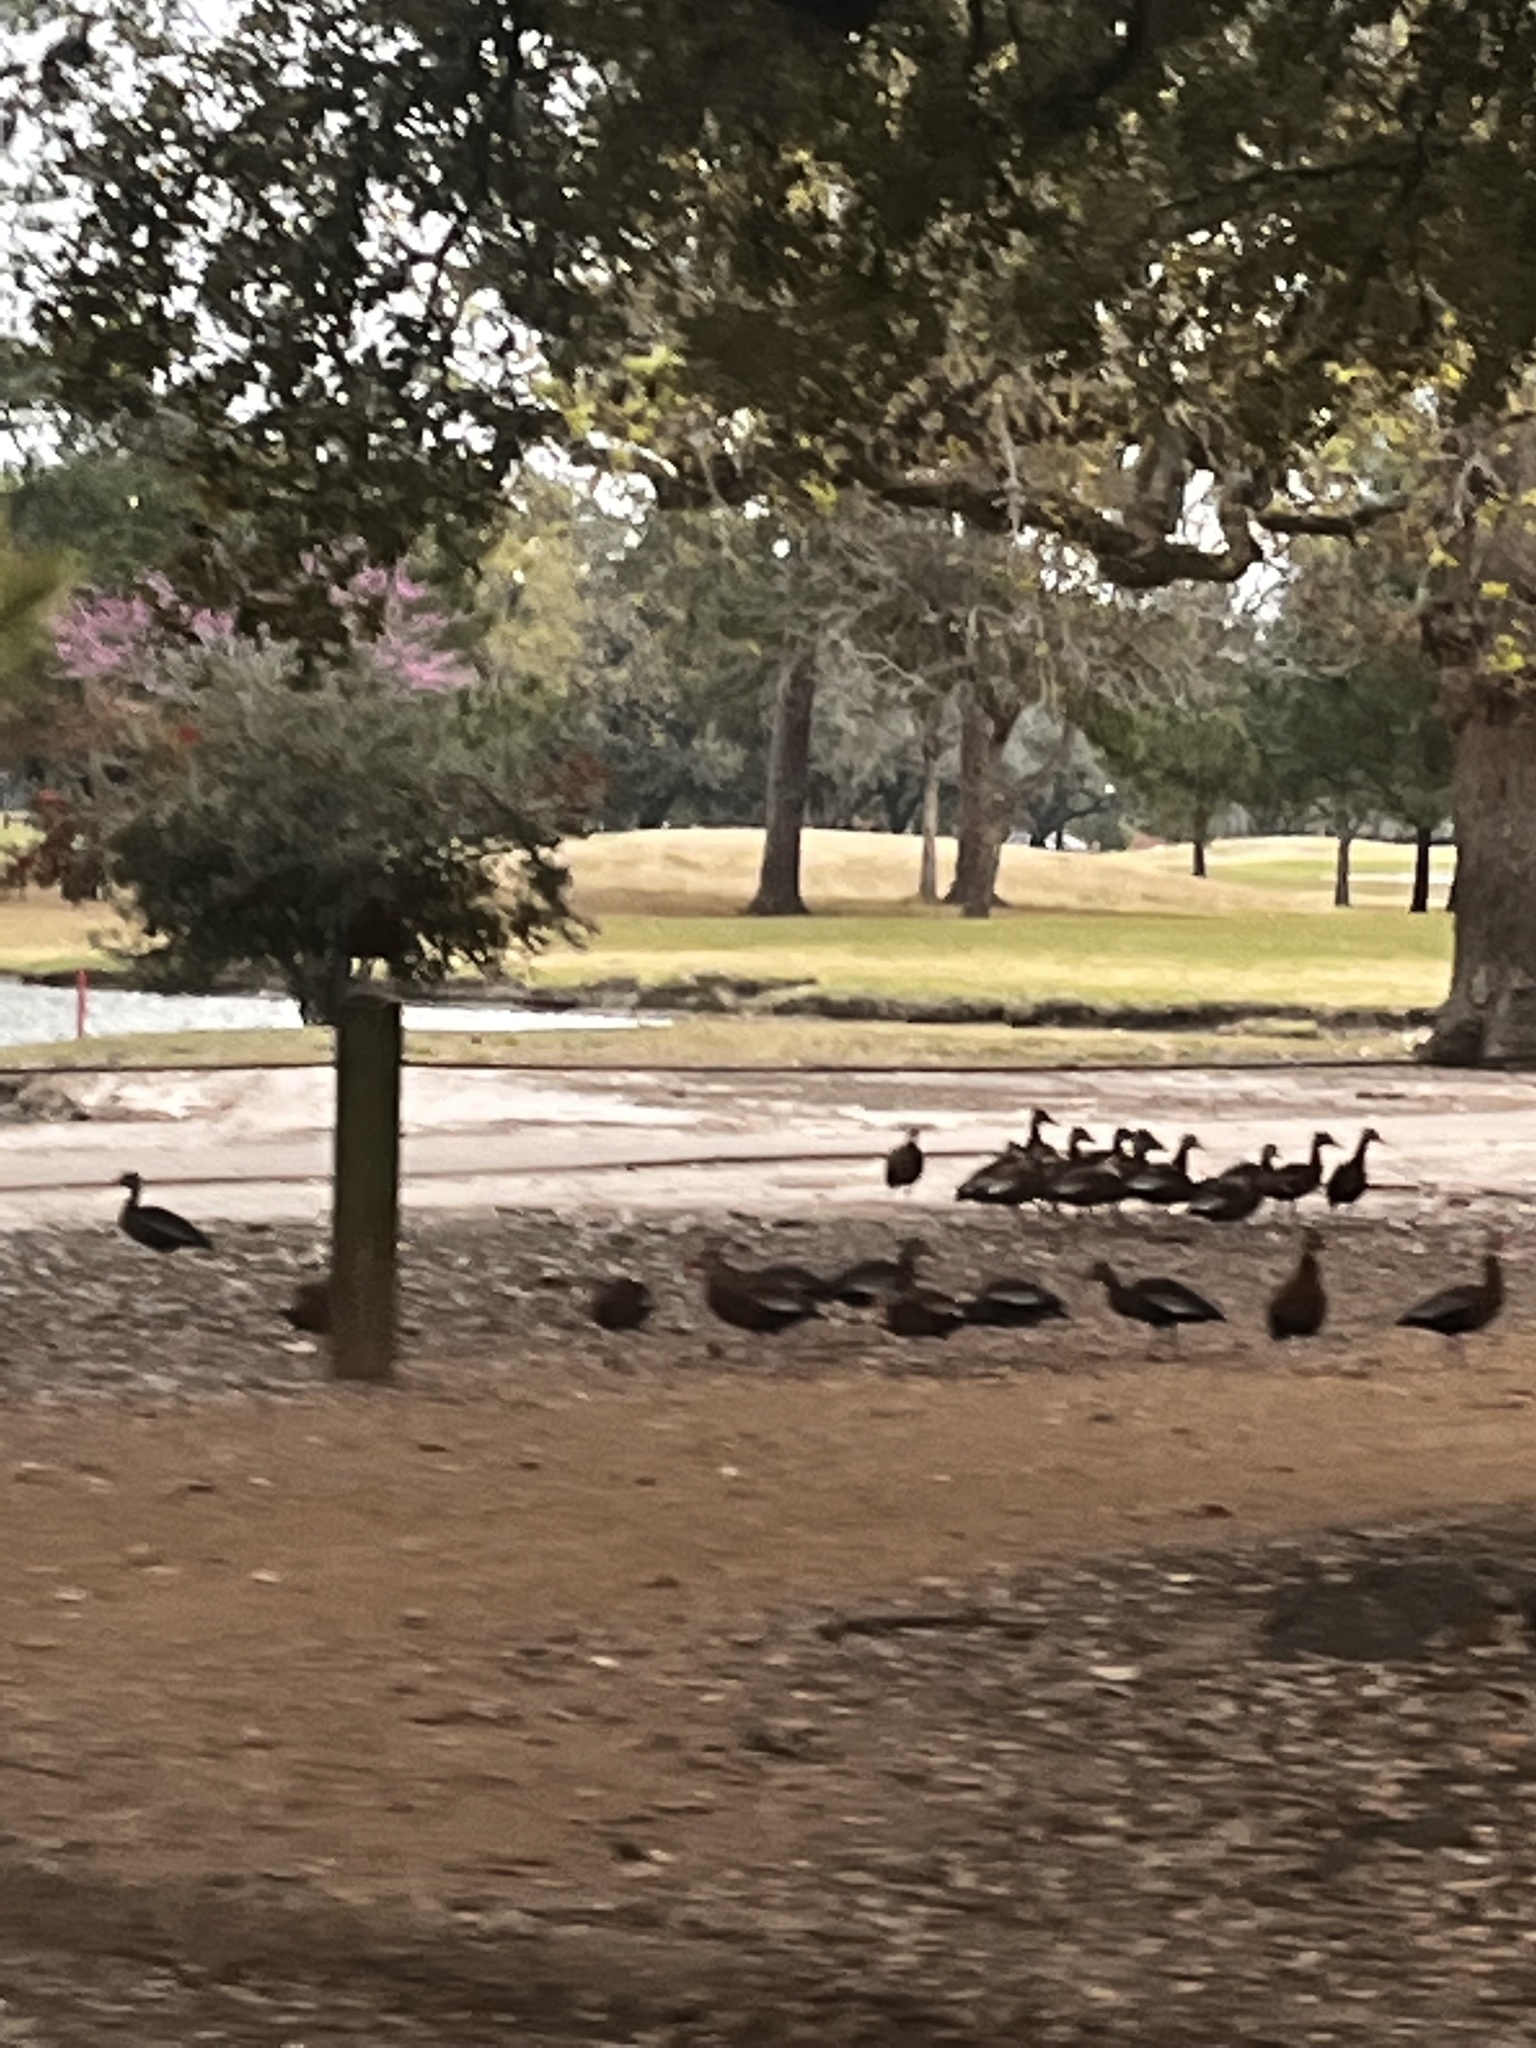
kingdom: Animalia
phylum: Chordata
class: Aves
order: Anseriformes
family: Anatidae
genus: Dendrocygna
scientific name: Dendrocygna autumnalis
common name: Black-bellied whistling duck
